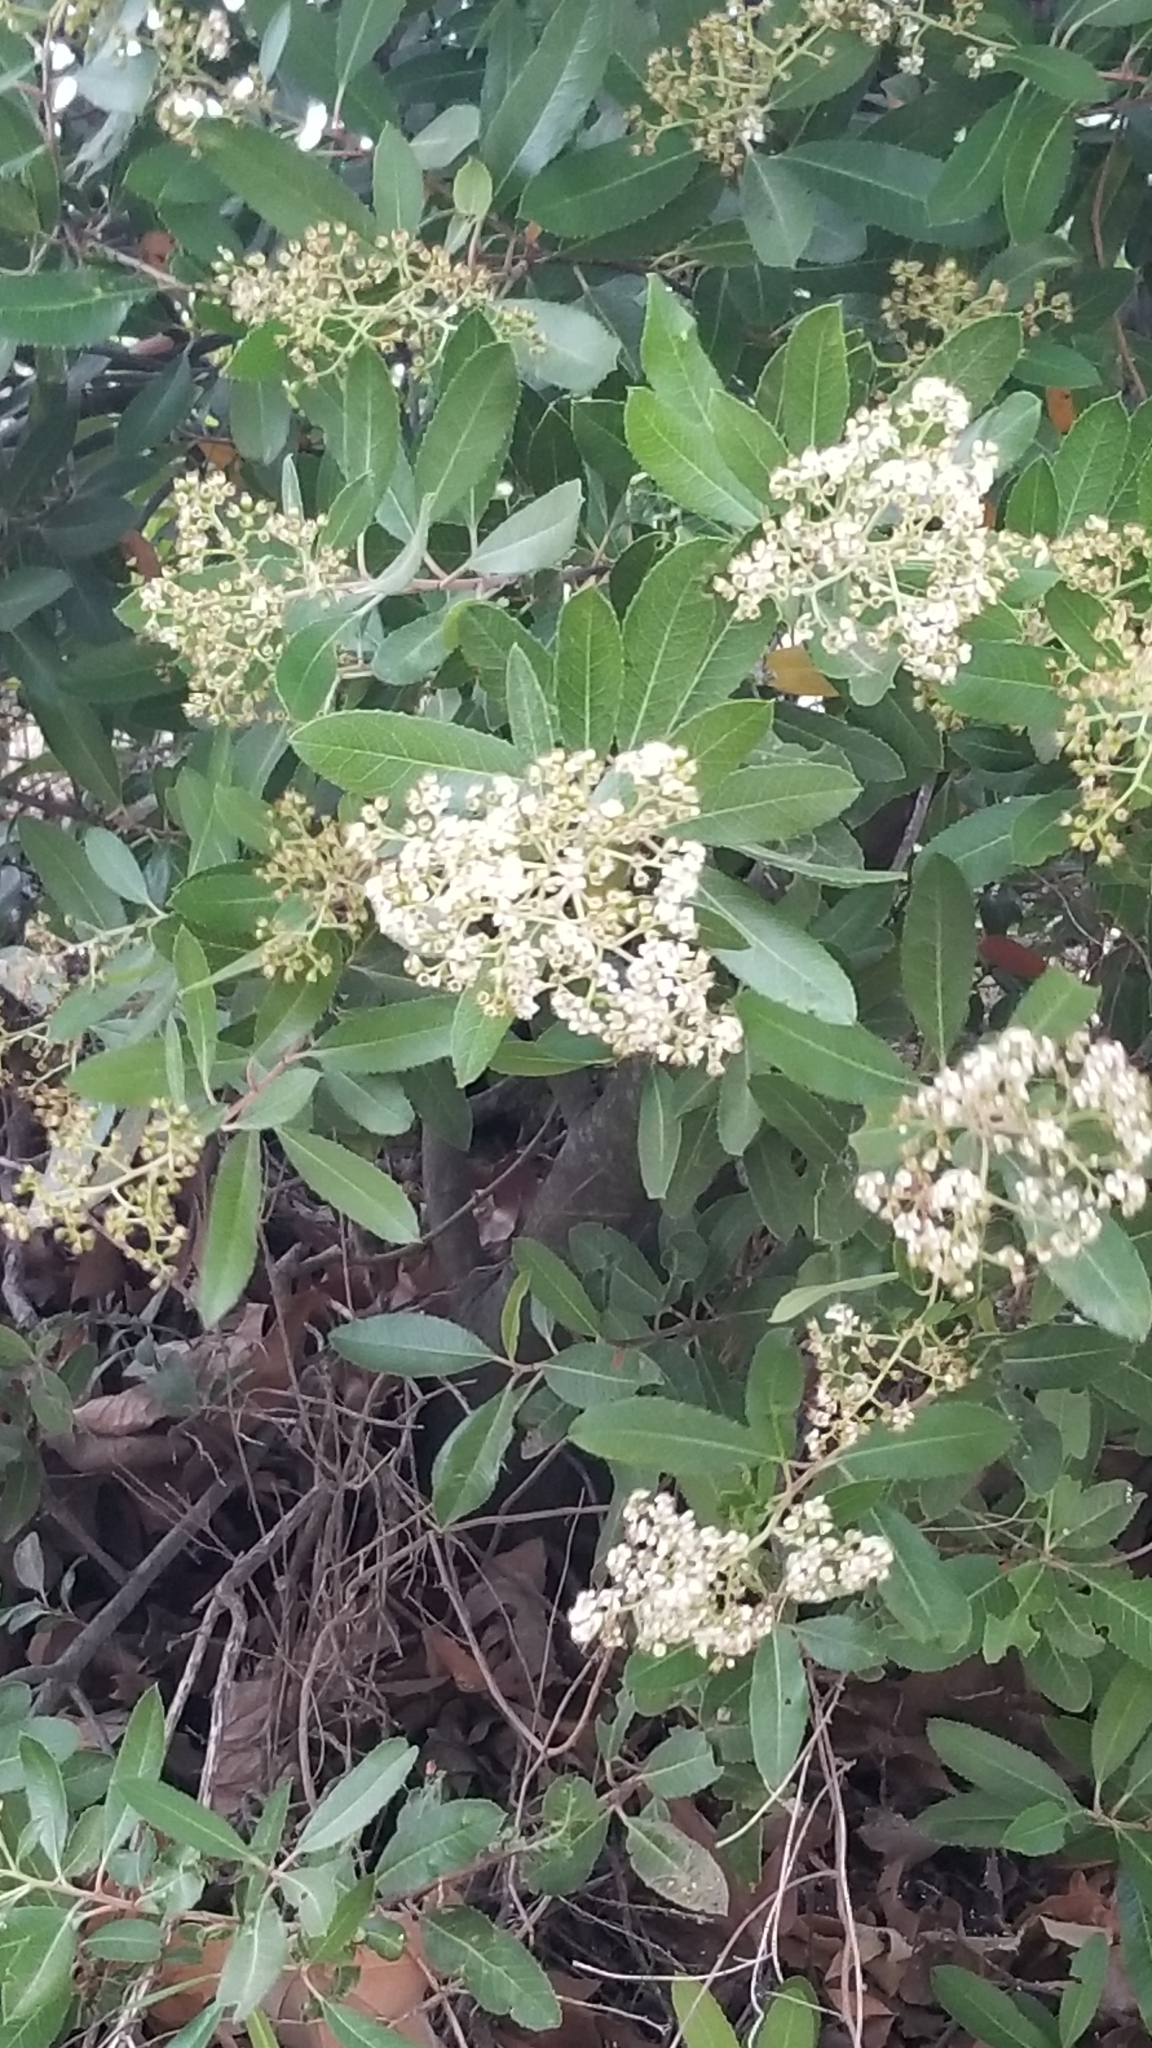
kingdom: Plantae
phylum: Tracheophyta
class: Magnoliopsida
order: Rosales
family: Rosaceae
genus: Heteromeles
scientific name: Heteromeles arbutifolia
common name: California-holly
